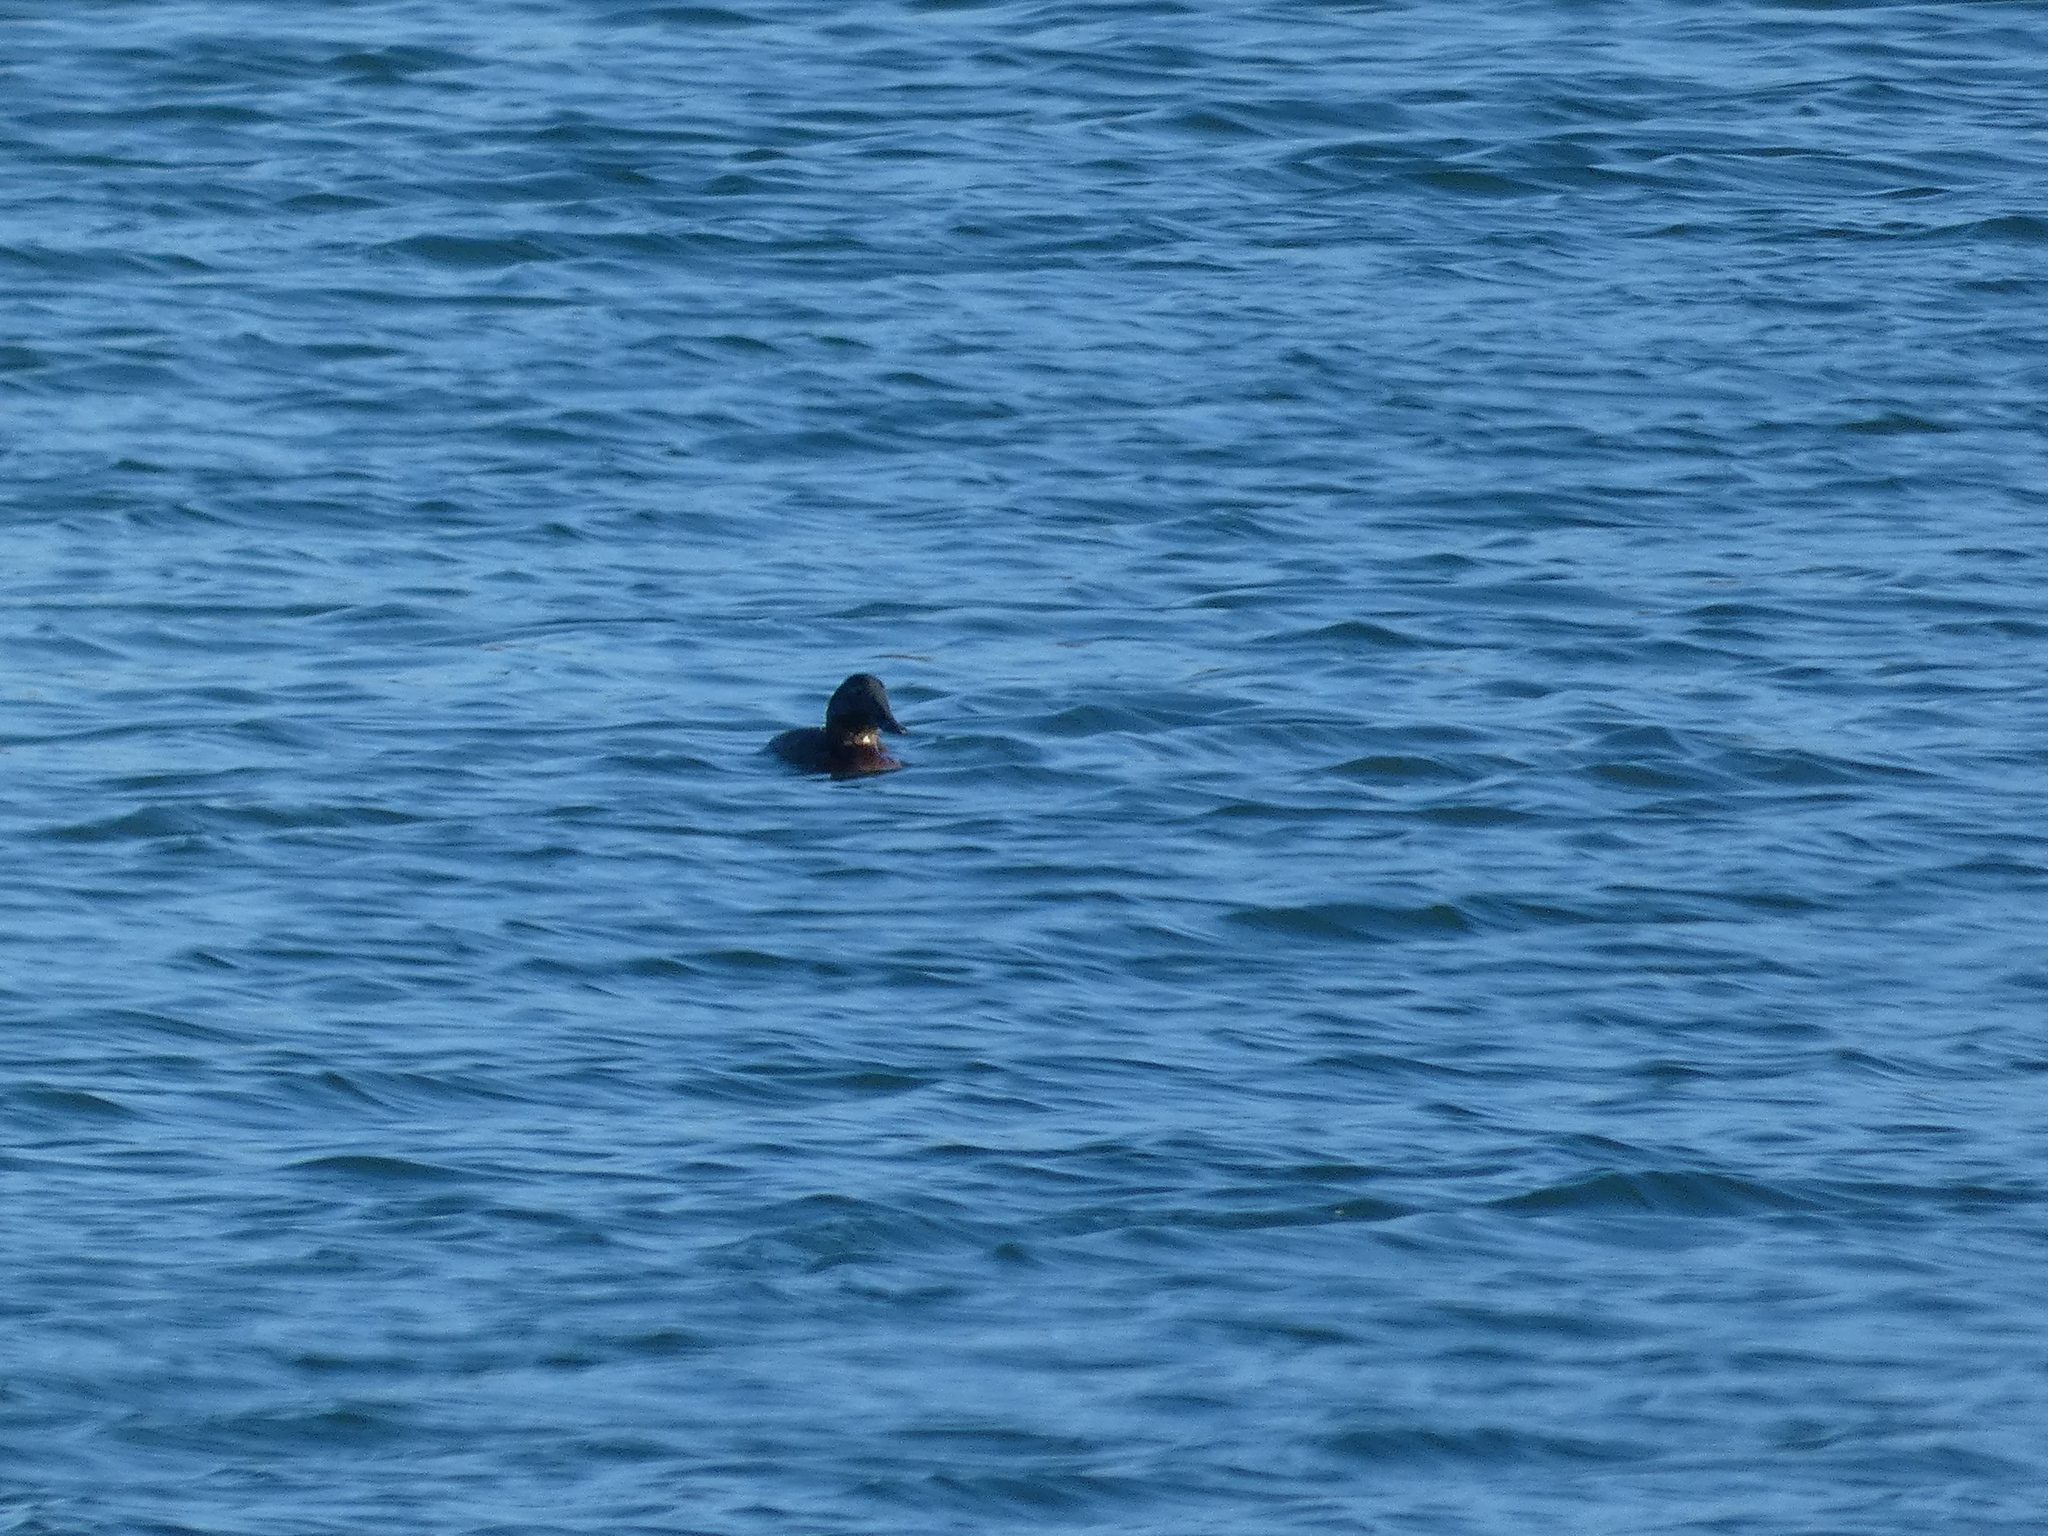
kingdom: Animalia
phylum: Chordata
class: Aves
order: Anseriformes
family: Anatidae
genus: Aythya
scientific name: Aythya ferina
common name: Common pochard
